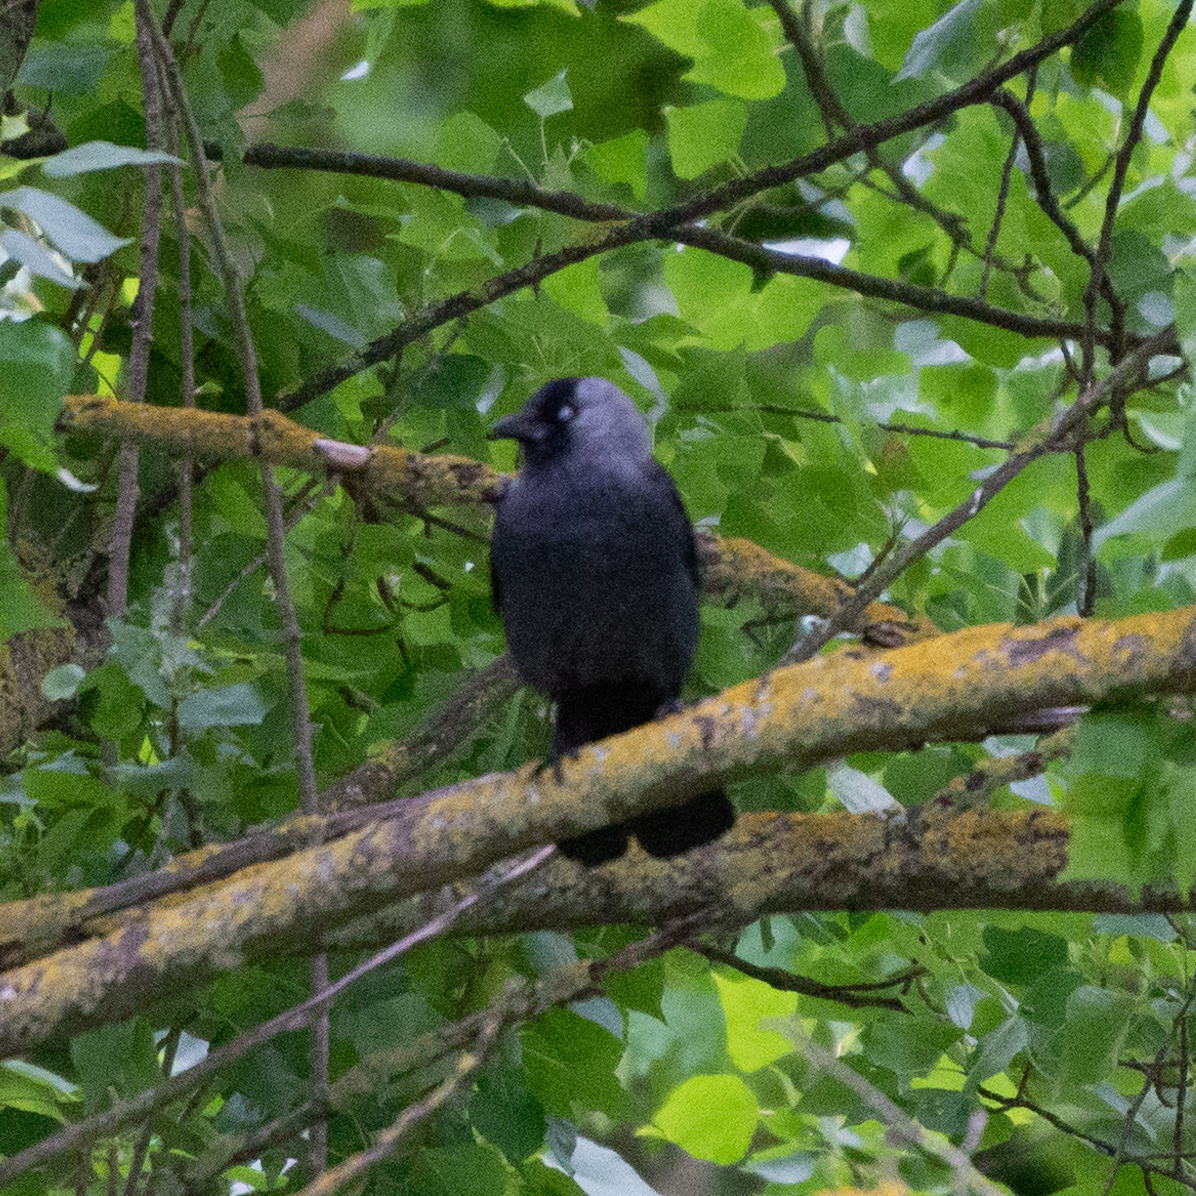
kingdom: Animalia
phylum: Chordata
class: Aves
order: Passeriformes
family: Corvidae
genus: Coloeus
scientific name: Coloeus monedula
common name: Western jackdaw
